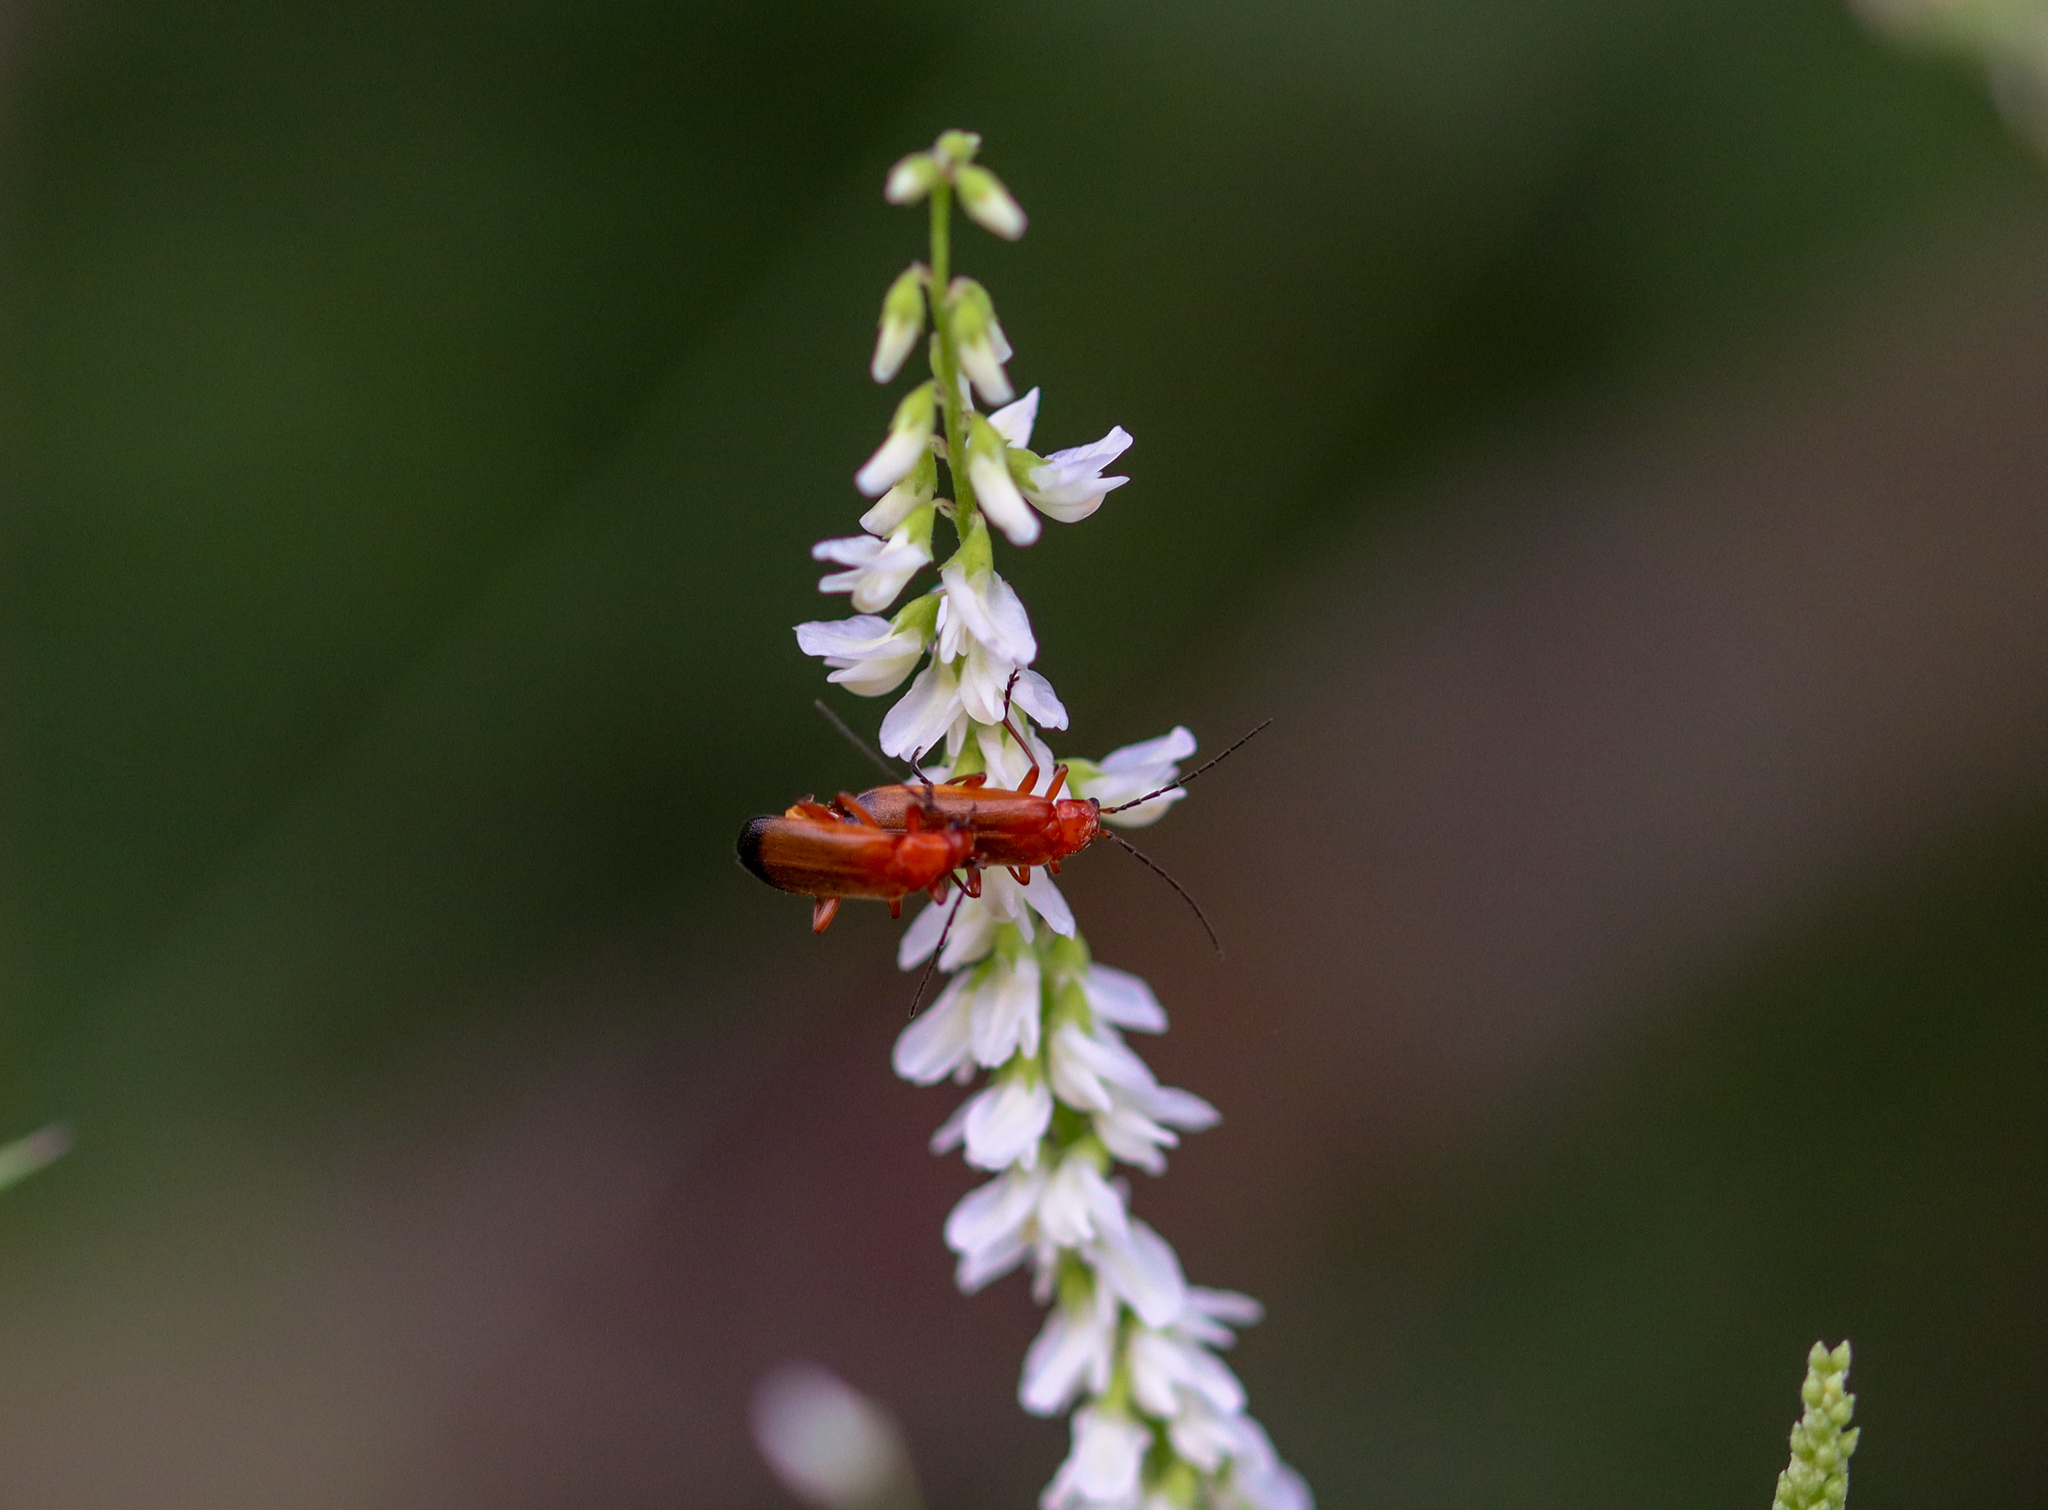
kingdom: Animalia
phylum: Arthropoda
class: Insecta
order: Coleoptera
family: Cantharidae
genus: Rhagonycha
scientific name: Rhagonycha fulva
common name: Common red soldier beetle
